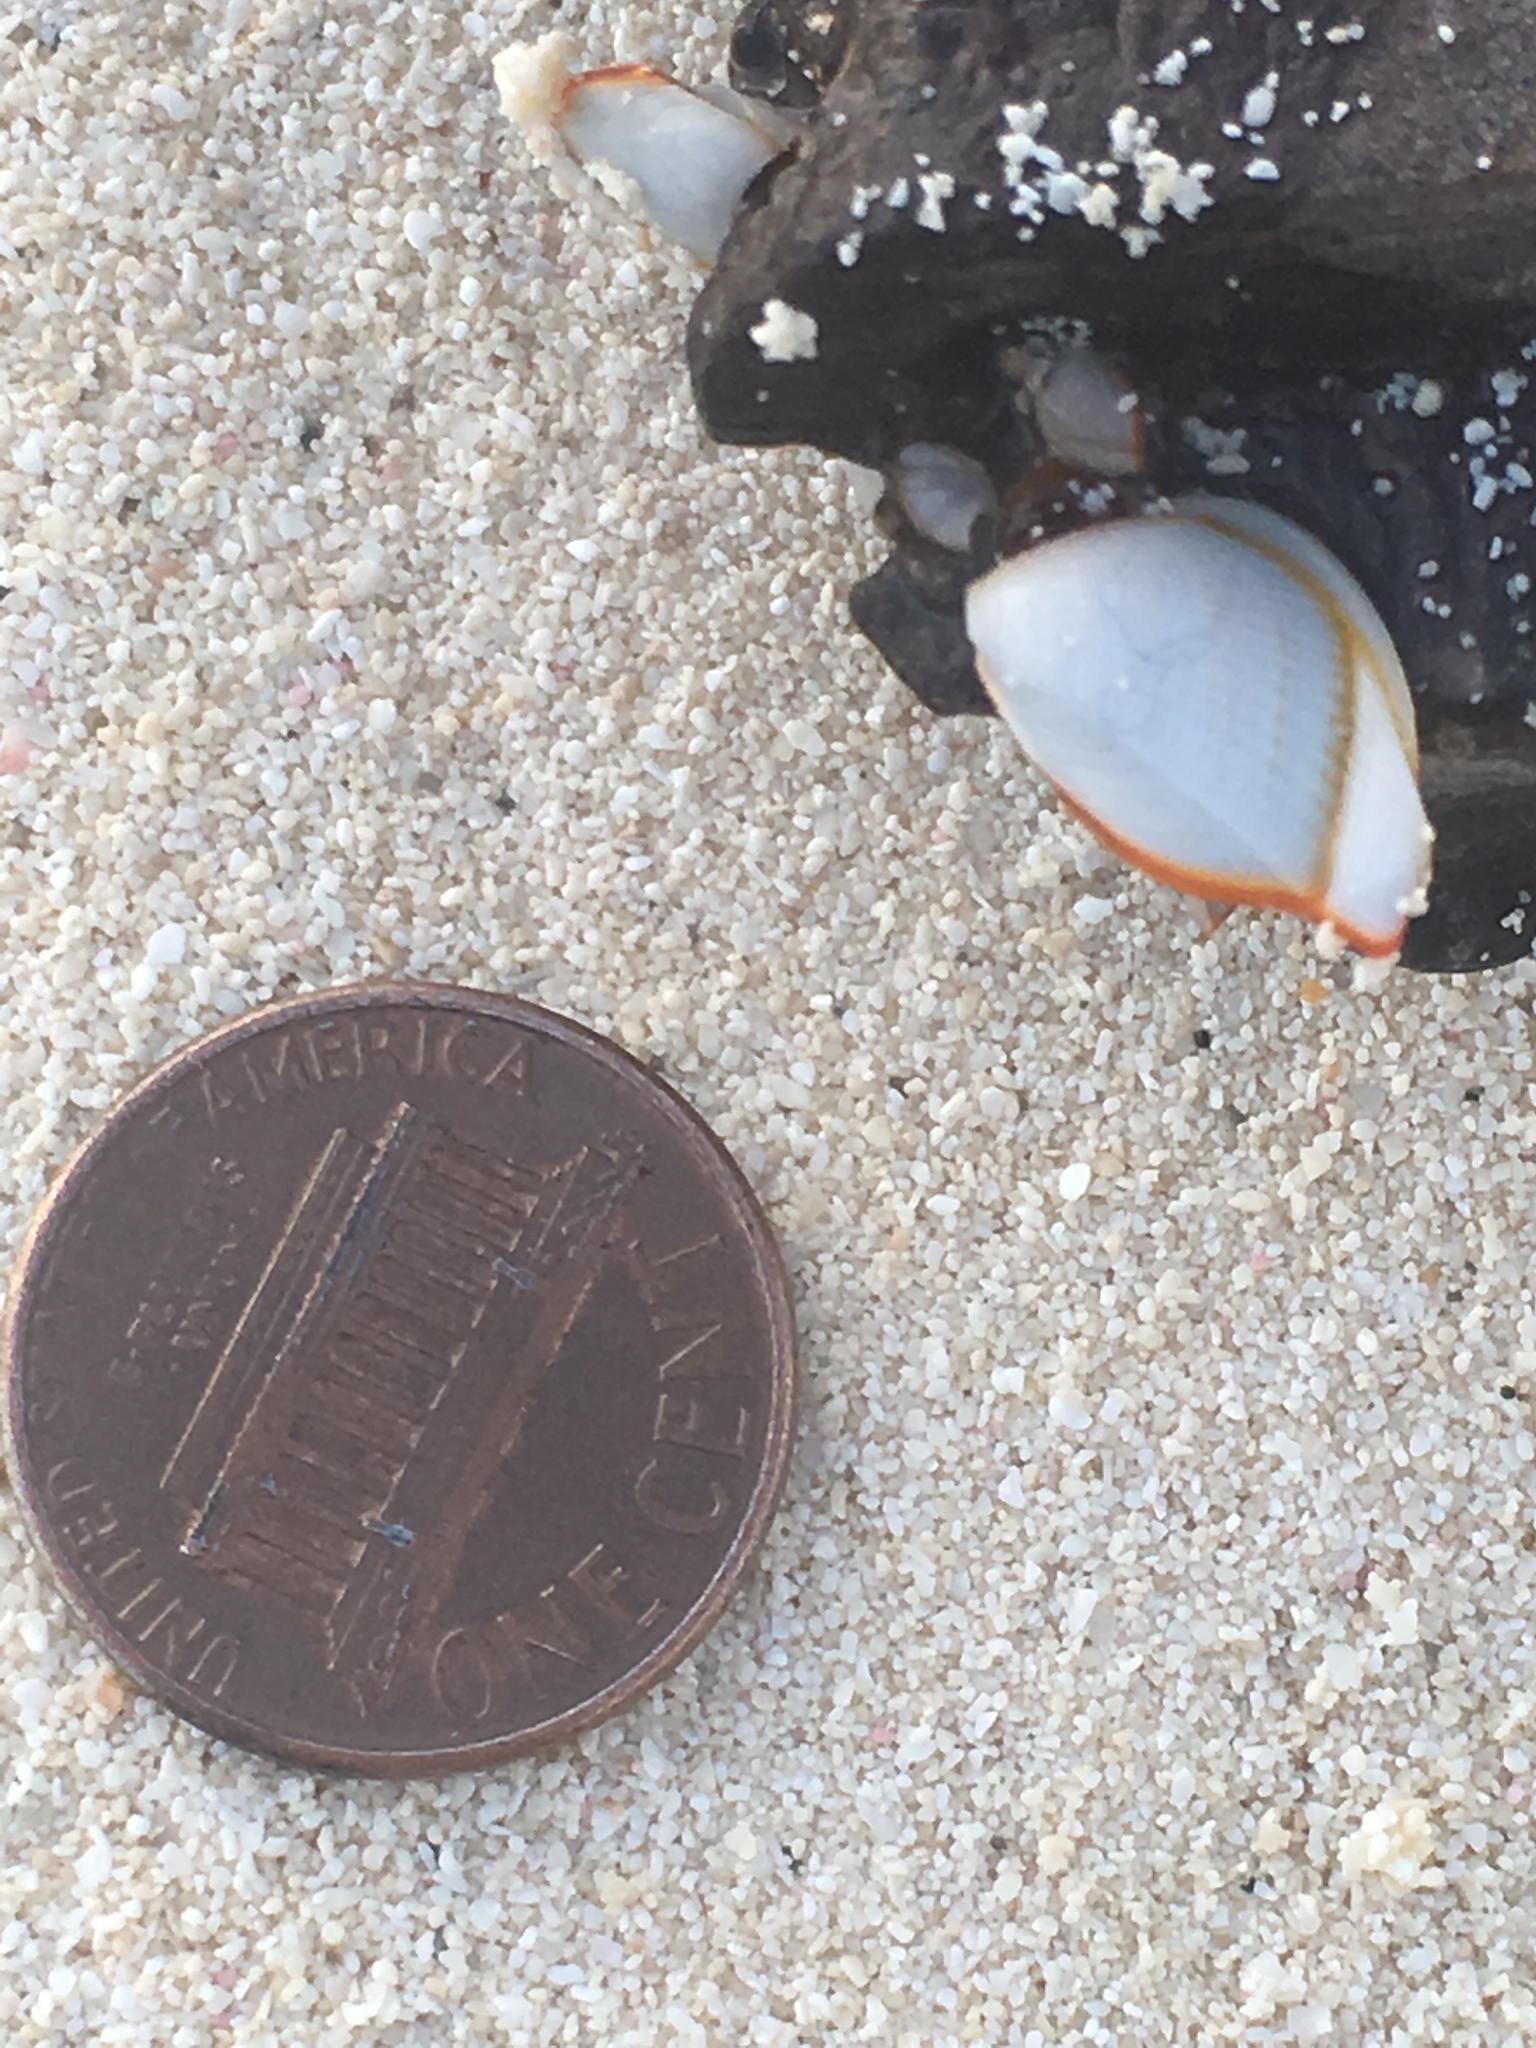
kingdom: Animalia
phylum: Arthropoda
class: Maxillopoda
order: Pedunculata
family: Lepadidae
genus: Lepas
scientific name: Lepas anserifera
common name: Goose barnacle
